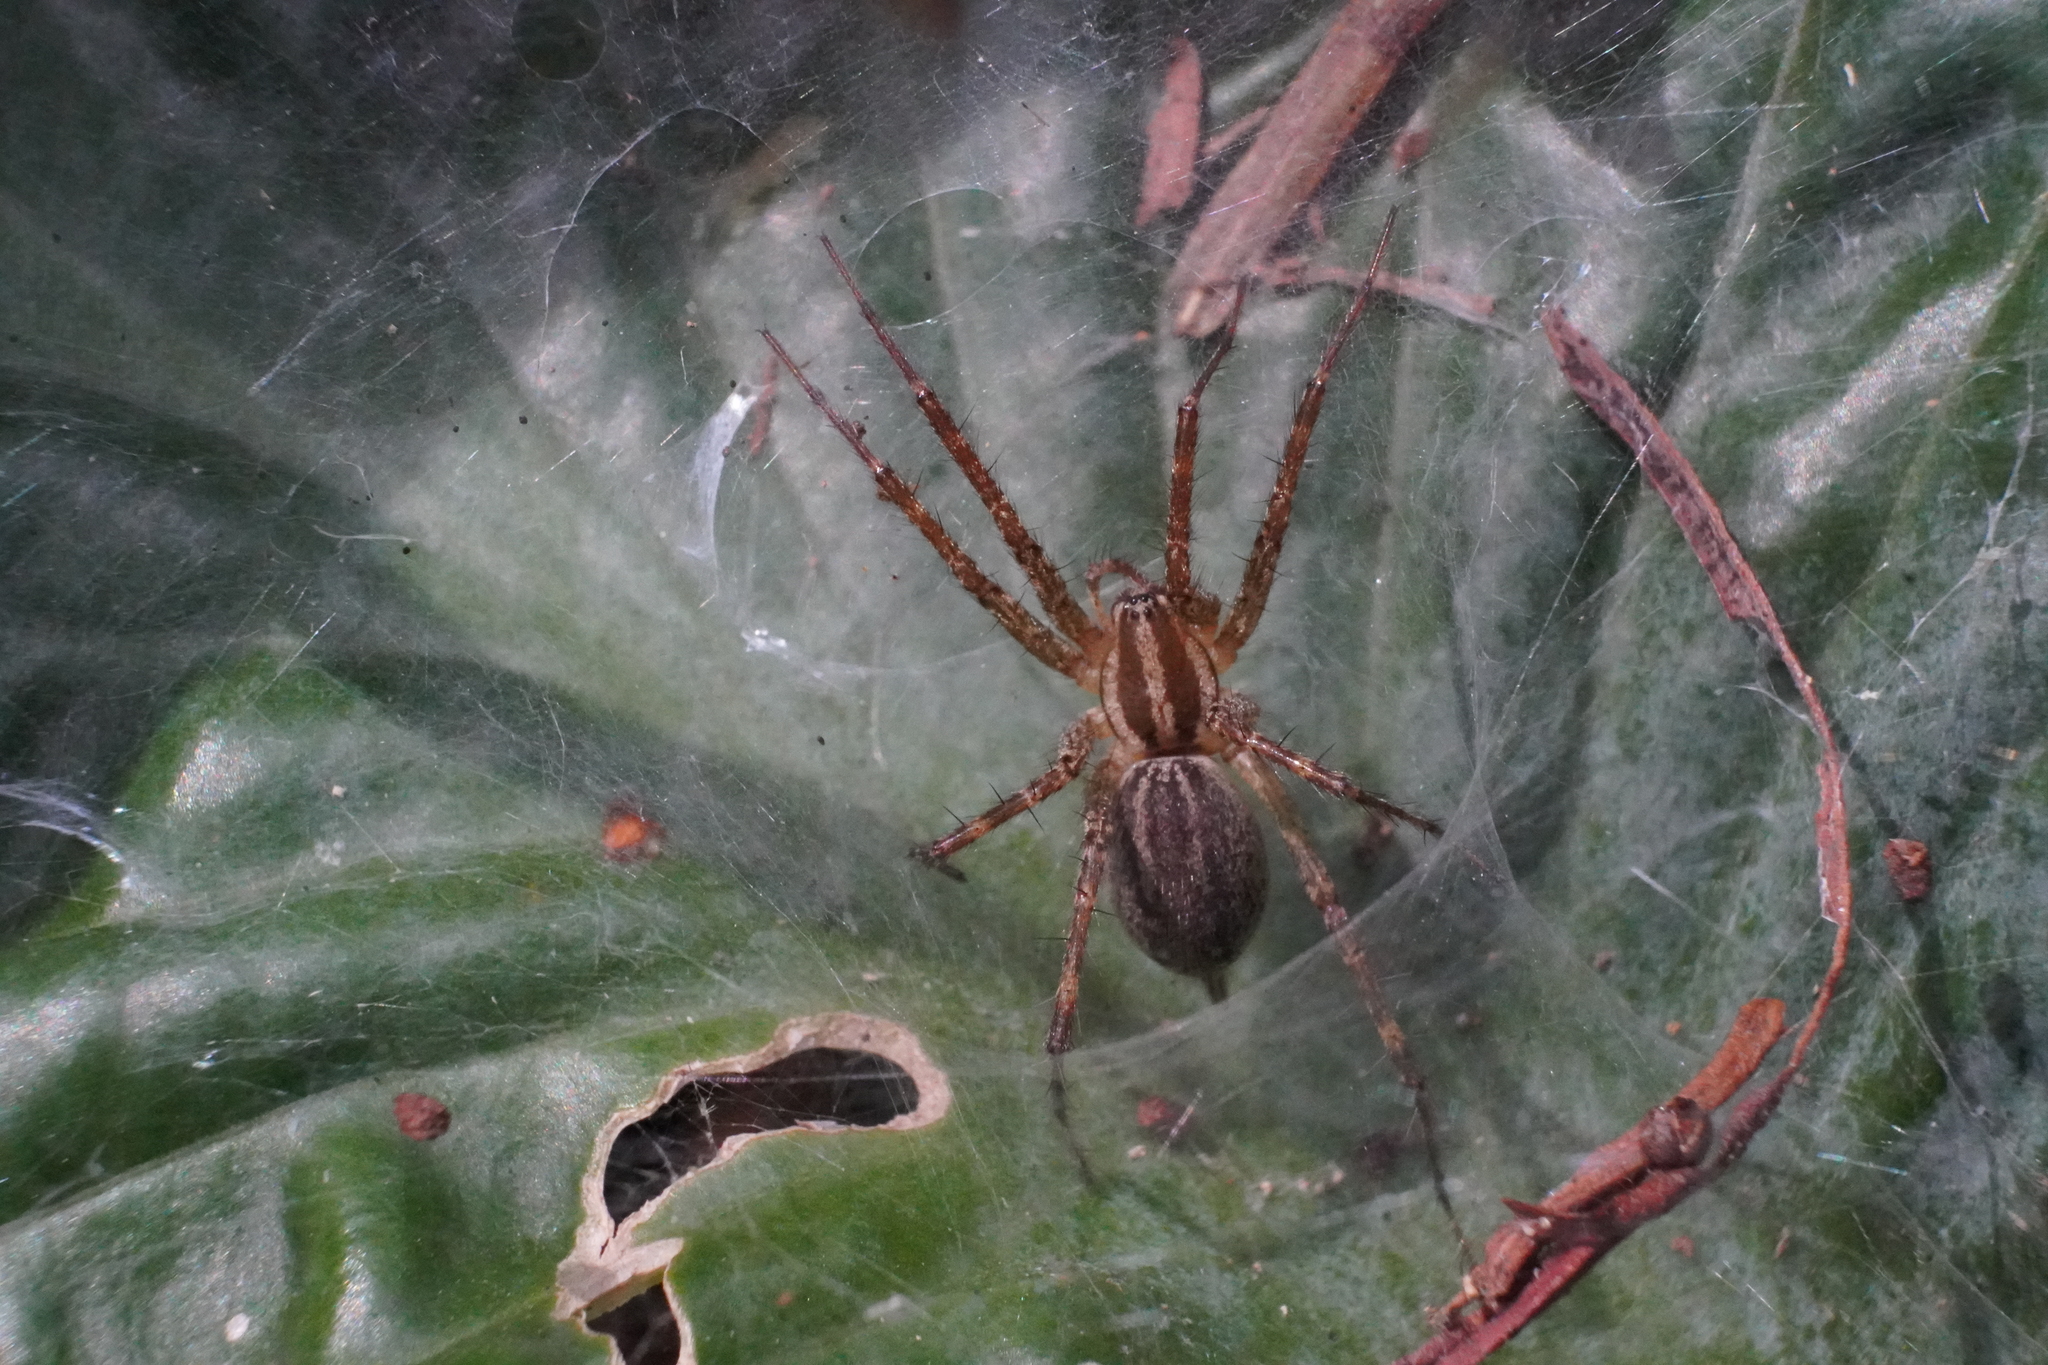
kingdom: Animalia
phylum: Arthropoda
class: Arachnida
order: Araneae
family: Agelenidae
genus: Agelenopsis
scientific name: Agelenopsis
